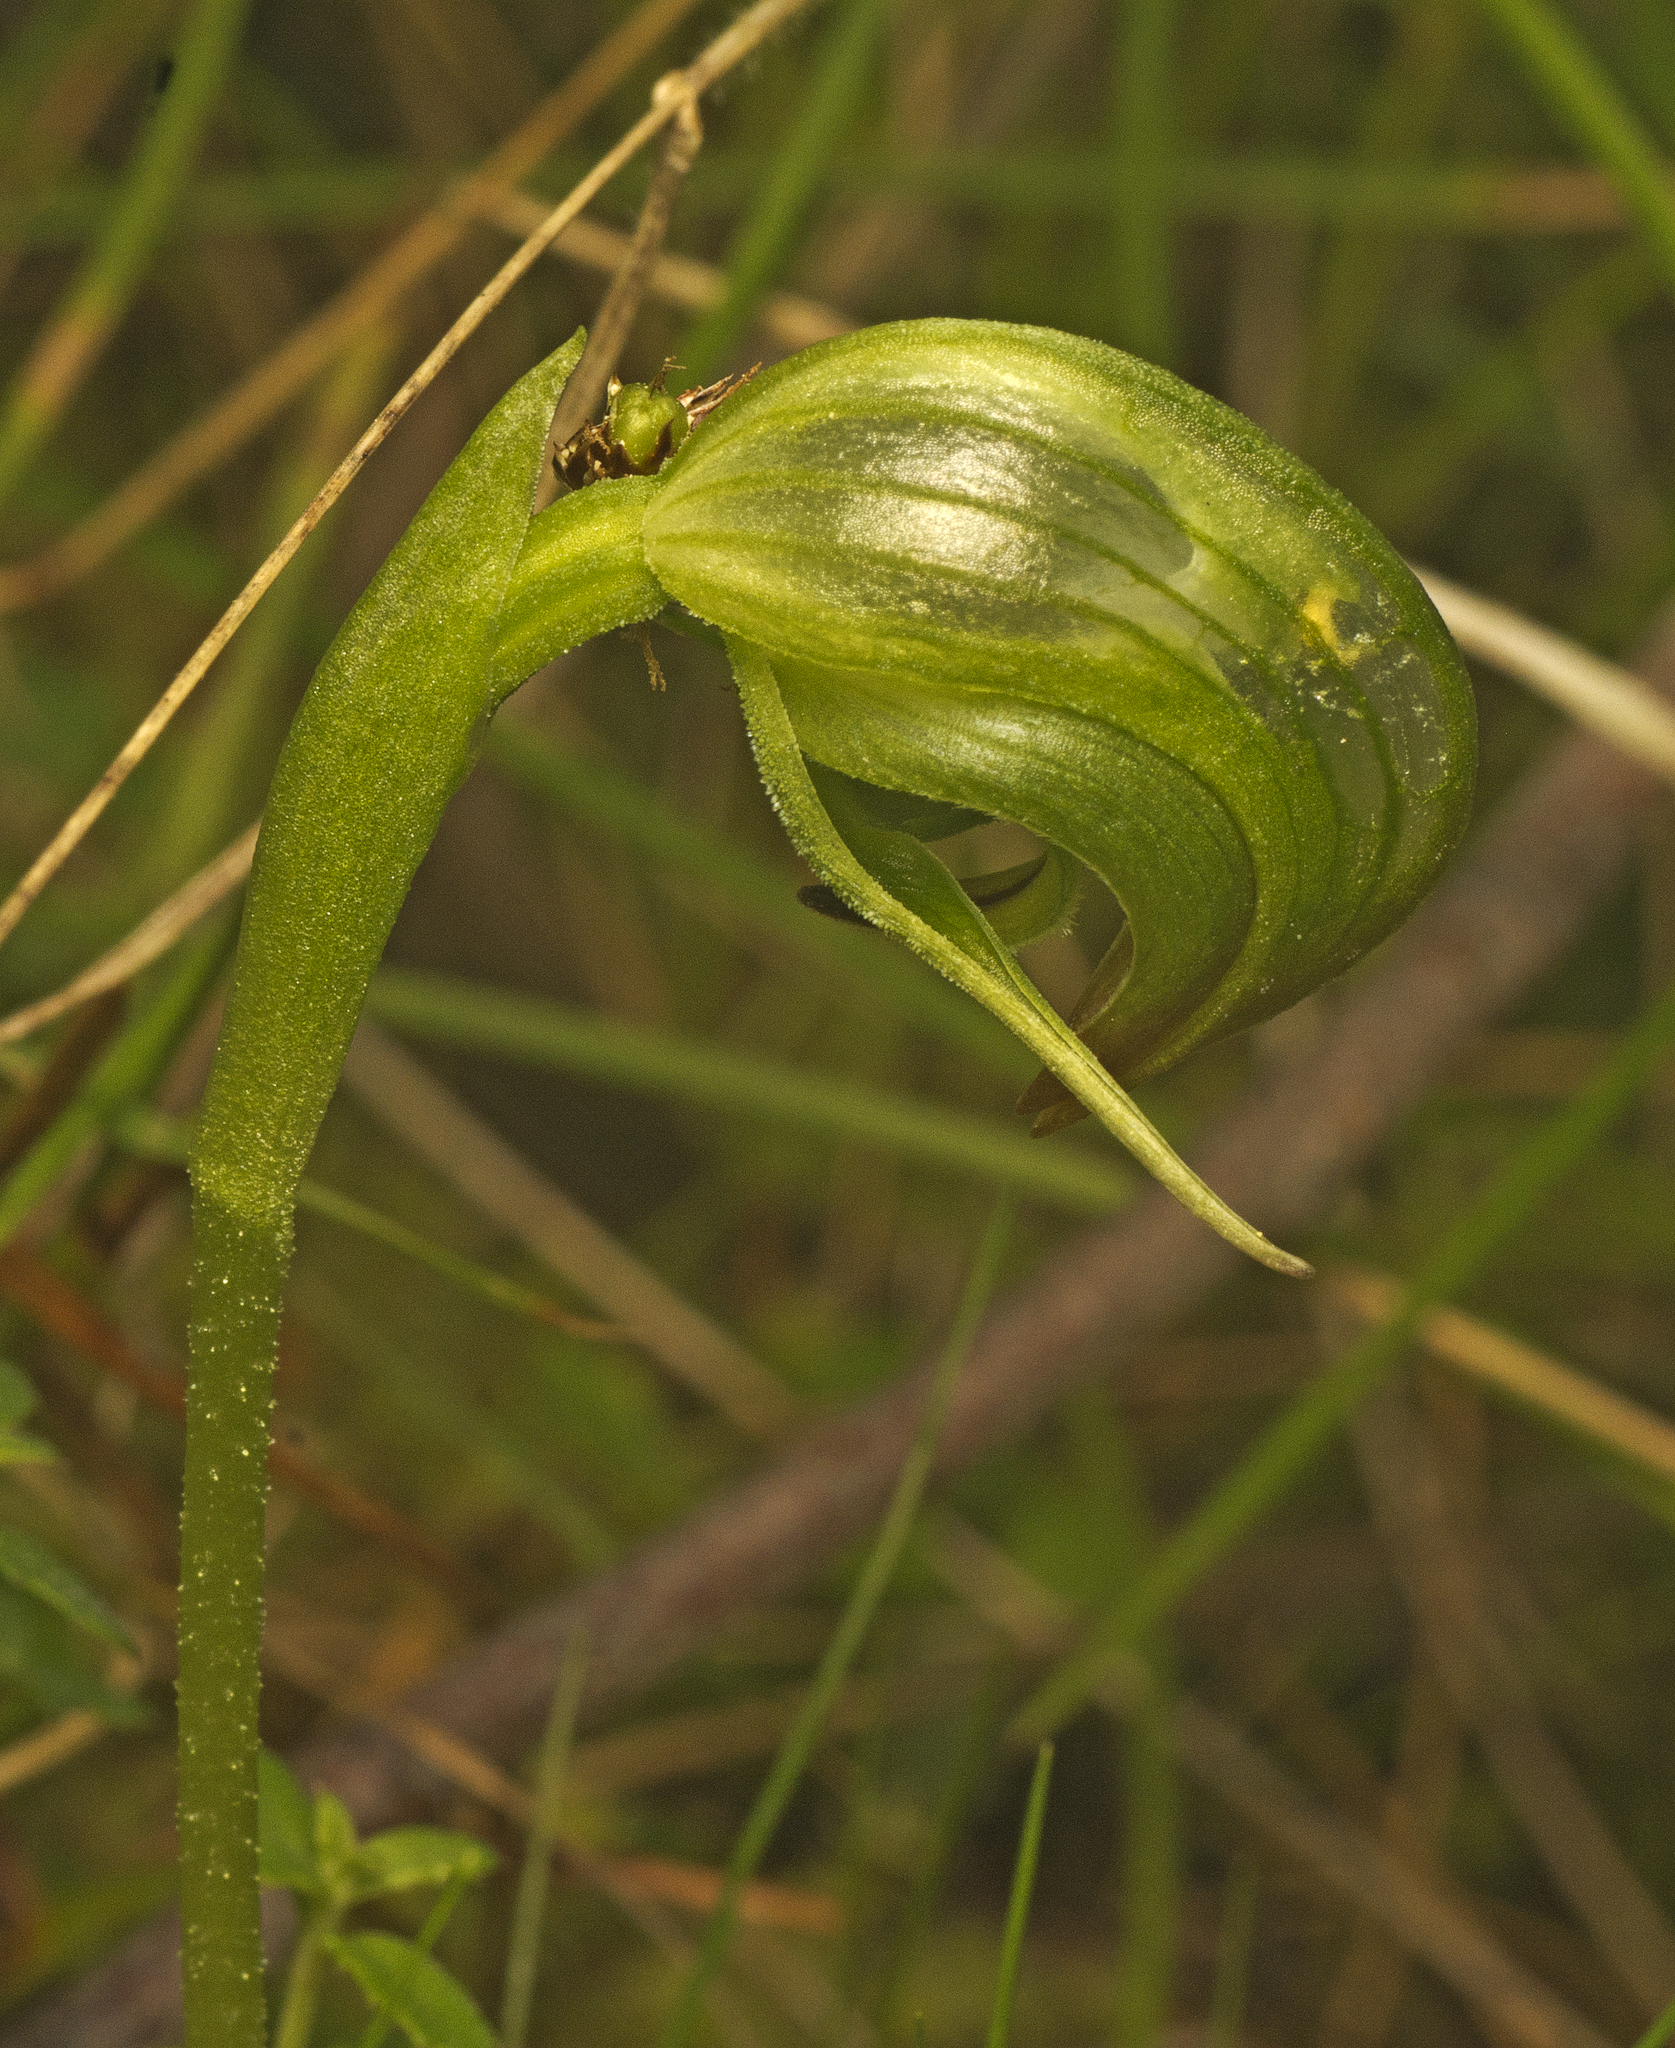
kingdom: Plantae
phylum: Tracheophyta
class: Liliopsida
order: Asparagales
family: Orchidaceae
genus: Pterostylis
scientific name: Pterostylis nutans
